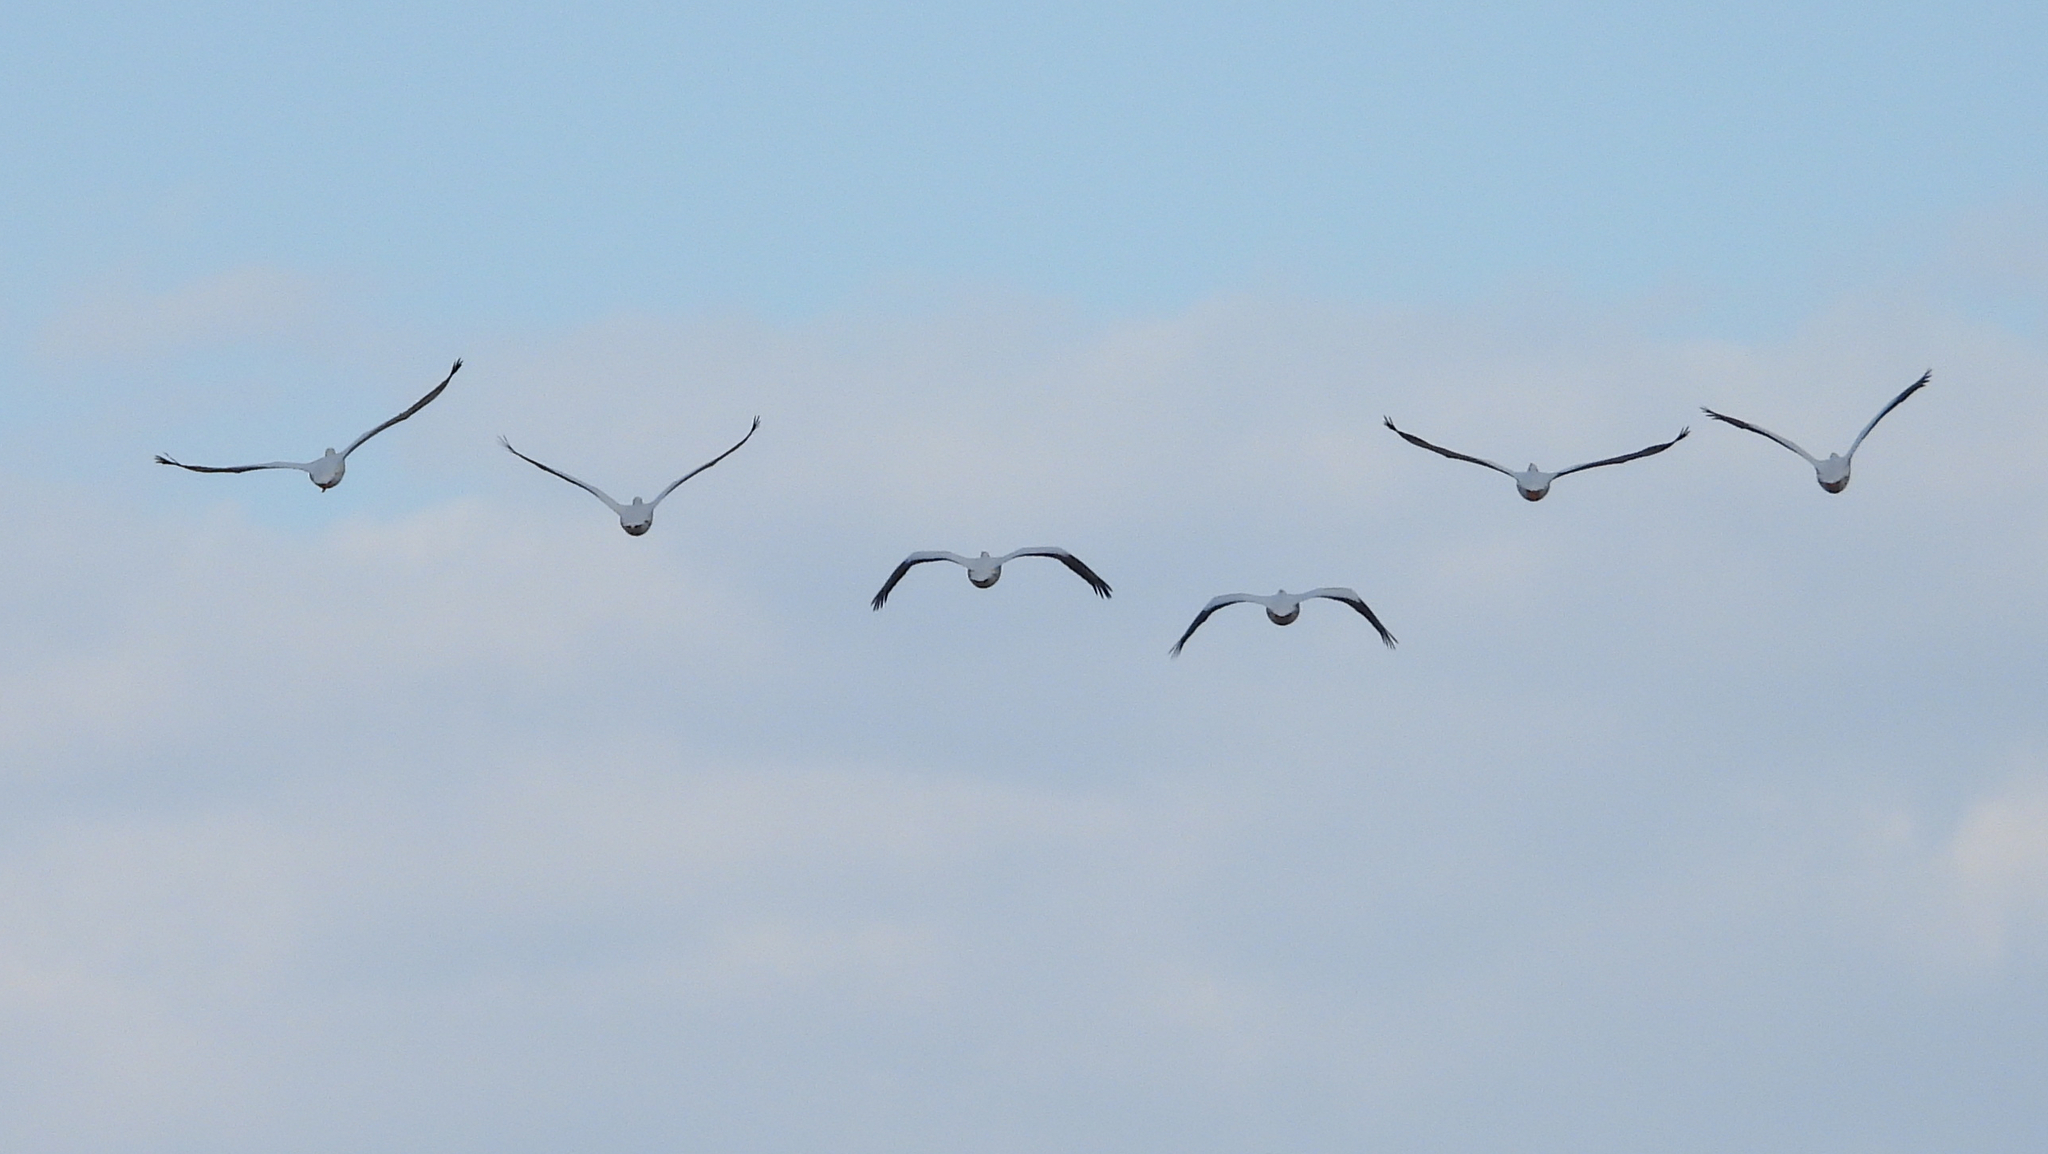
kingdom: Animalia
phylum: Chordata
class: Aves
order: Pelecaniformes
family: Pelecanidae
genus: Pelecanus
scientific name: Pelecanus erythrorhynchos
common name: American white pelican
